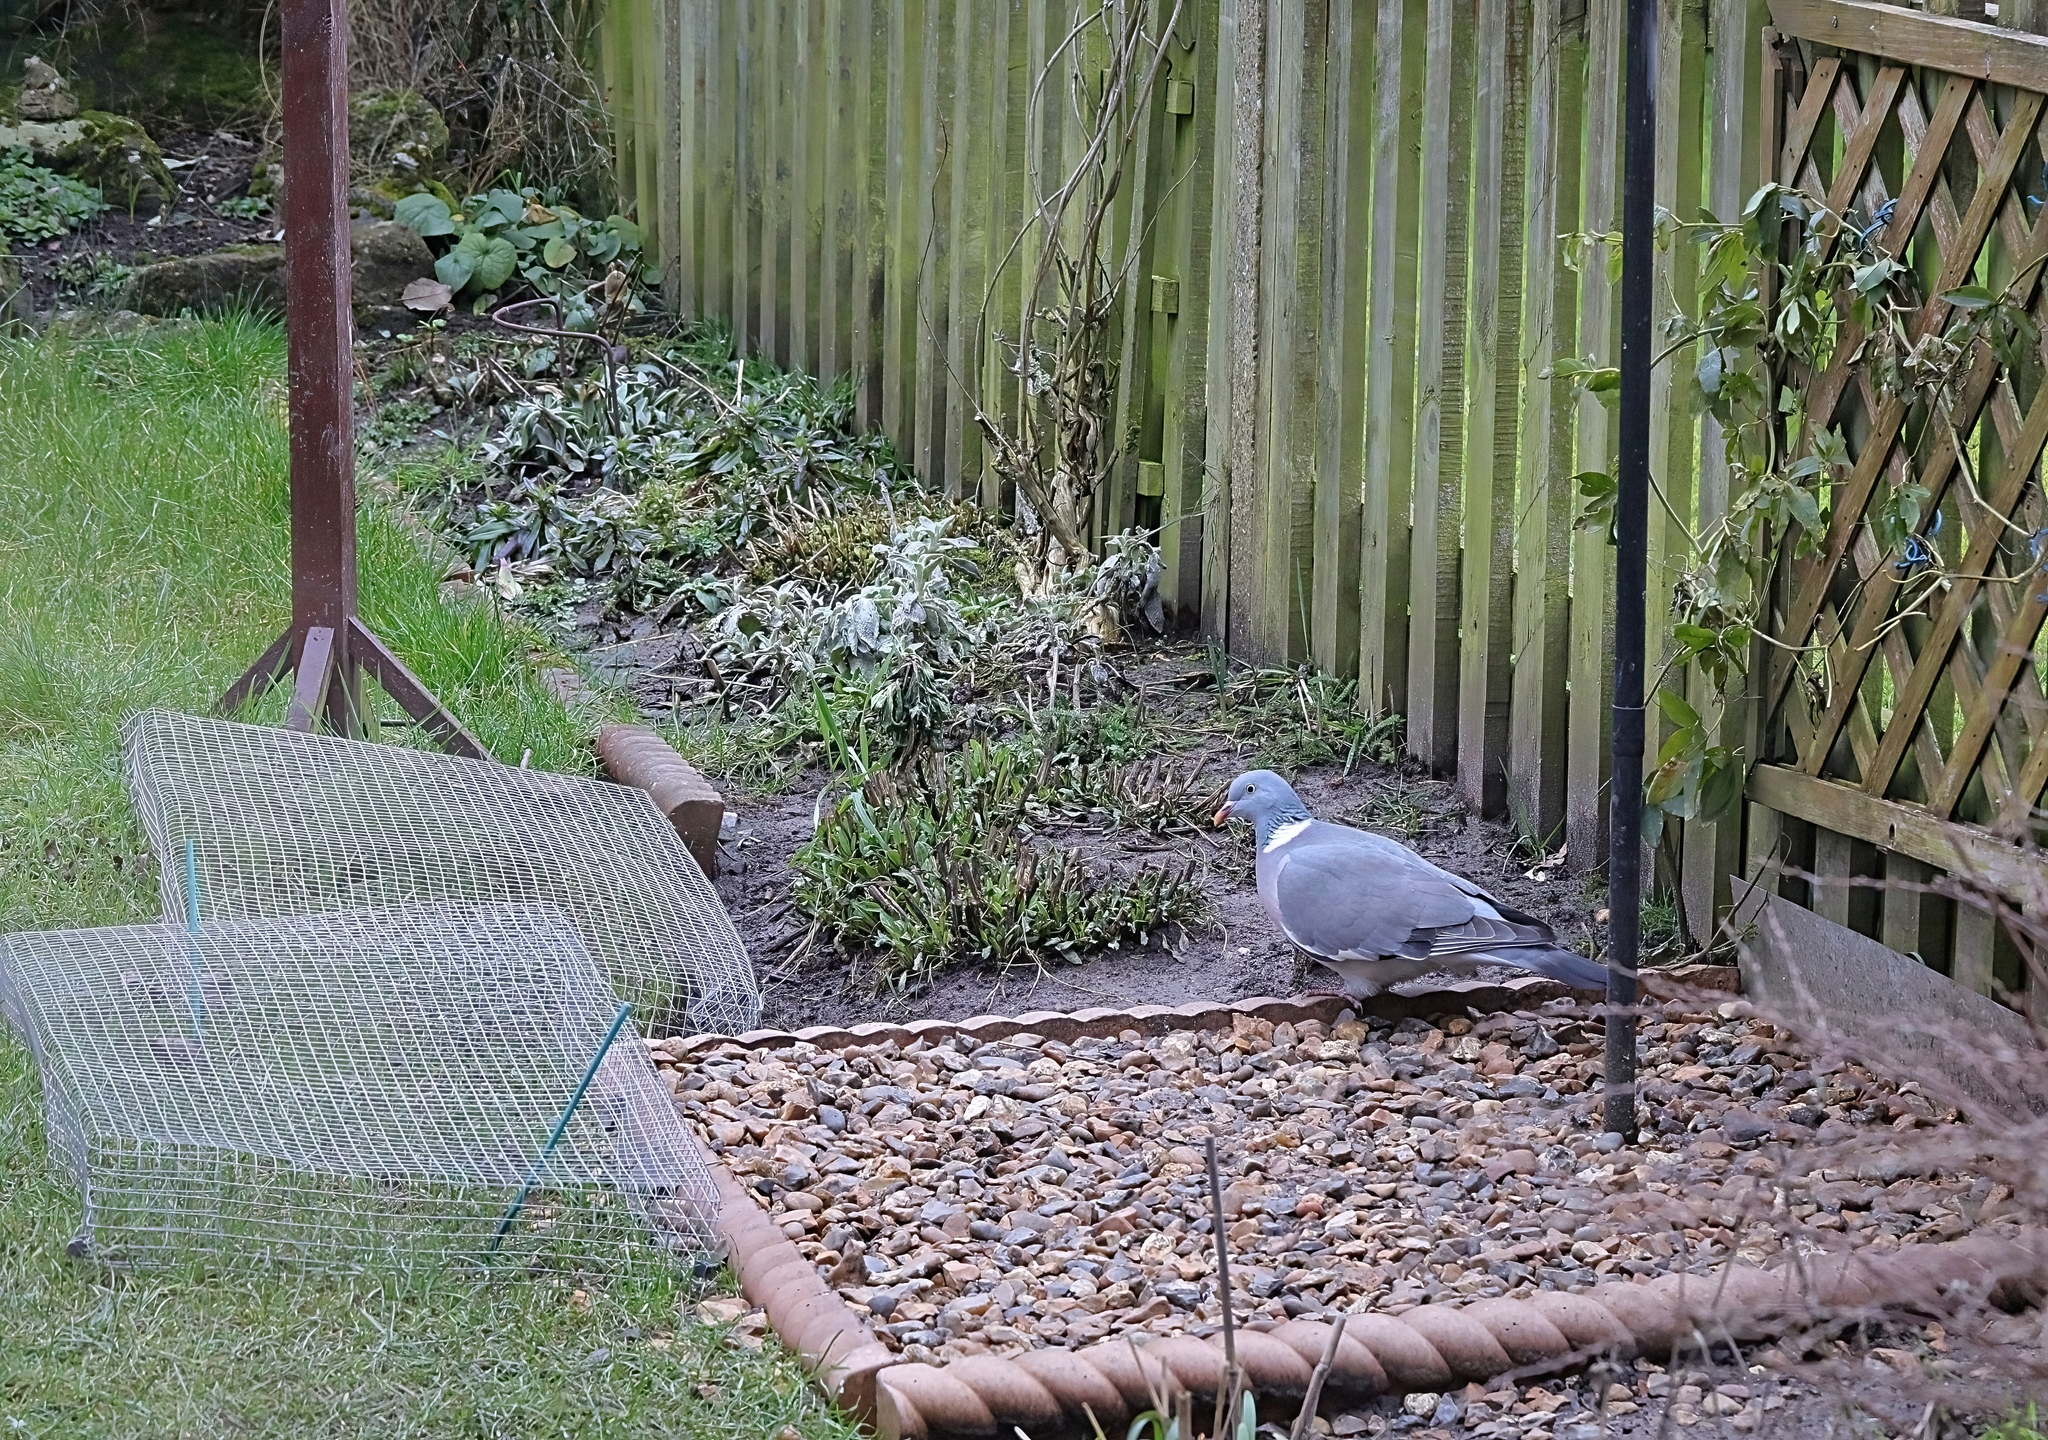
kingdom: Animalia
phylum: Chordata
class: Aves
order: Columbiformes
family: Columbidae
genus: Columba
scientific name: Columba palumbus
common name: Common wood pigeon
